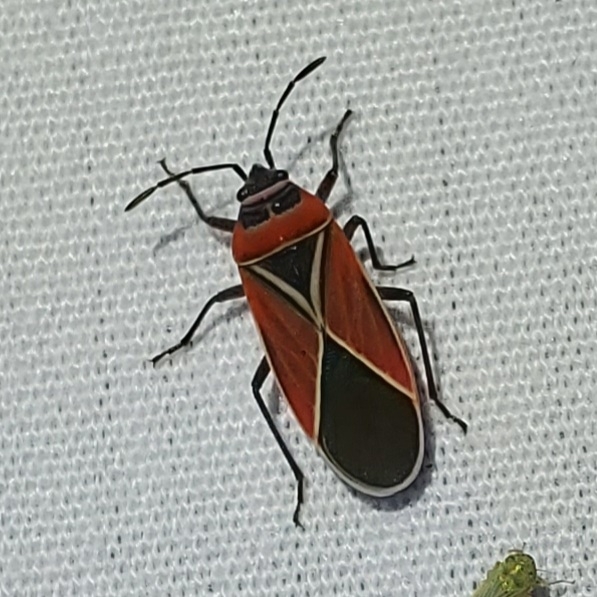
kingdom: Animalia
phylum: Arthropoda
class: Insecta
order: Hemiptera
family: Lygaeidae
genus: Neacoryphus
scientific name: Neacoryphus bicrucis
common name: Lygaeid bug
